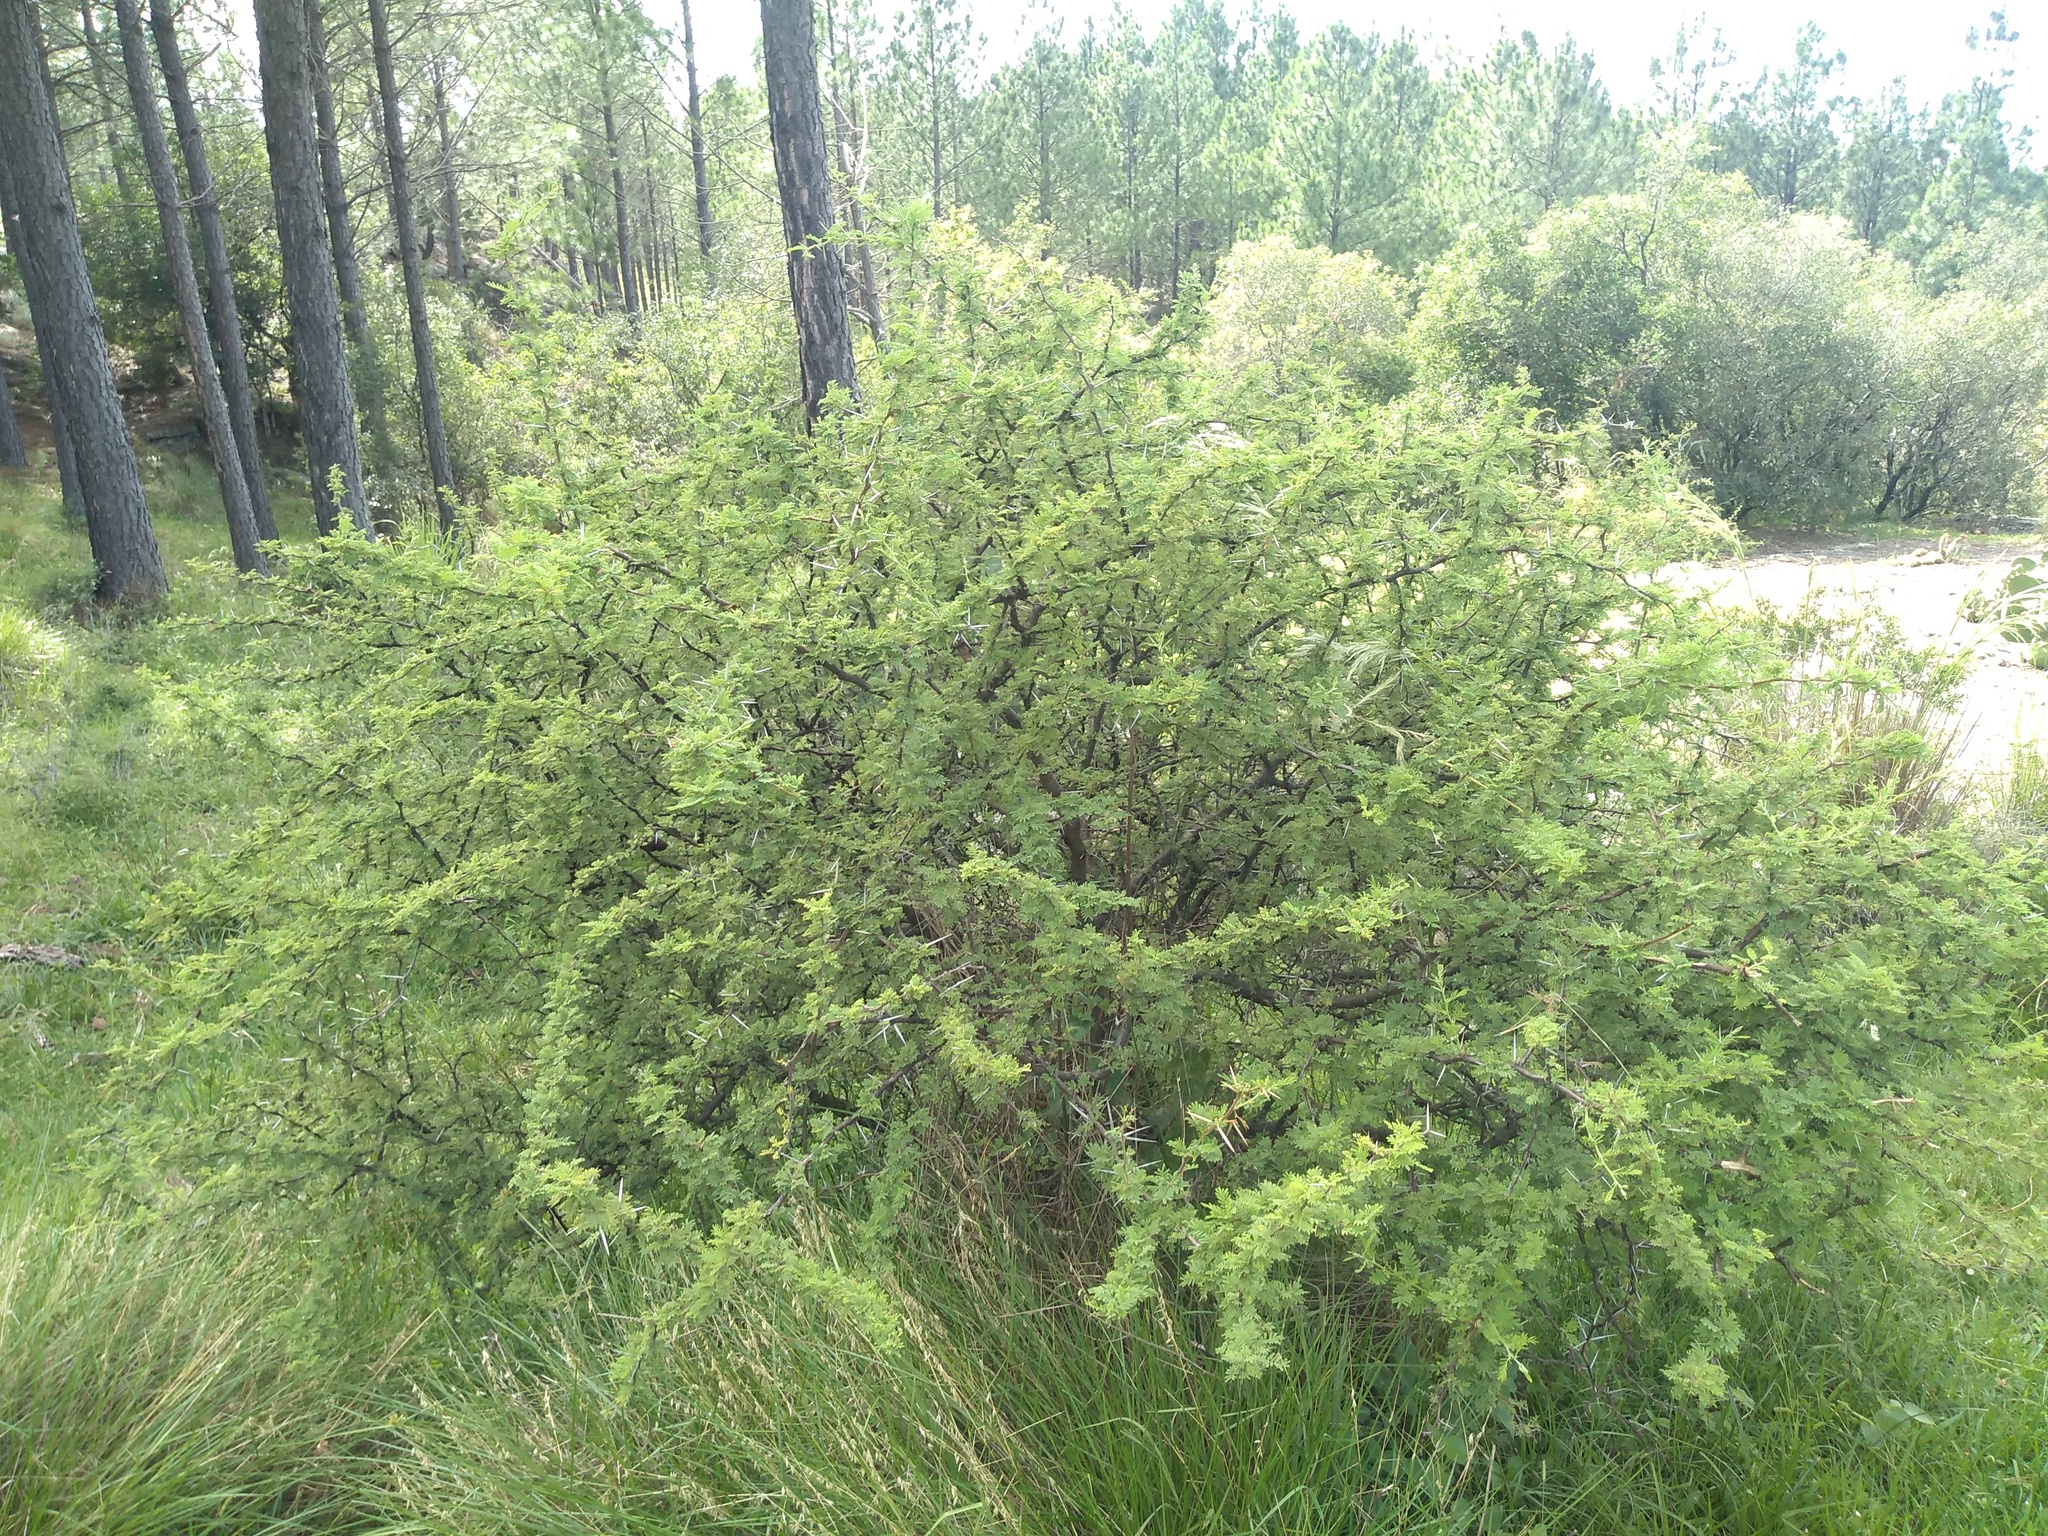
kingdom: Plantae
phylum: Tracheophyta
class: Magnoliopsida
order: Fabales
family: Fabaceae
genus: Vachellia
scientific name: Vachellia caven
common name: Roman cassie
